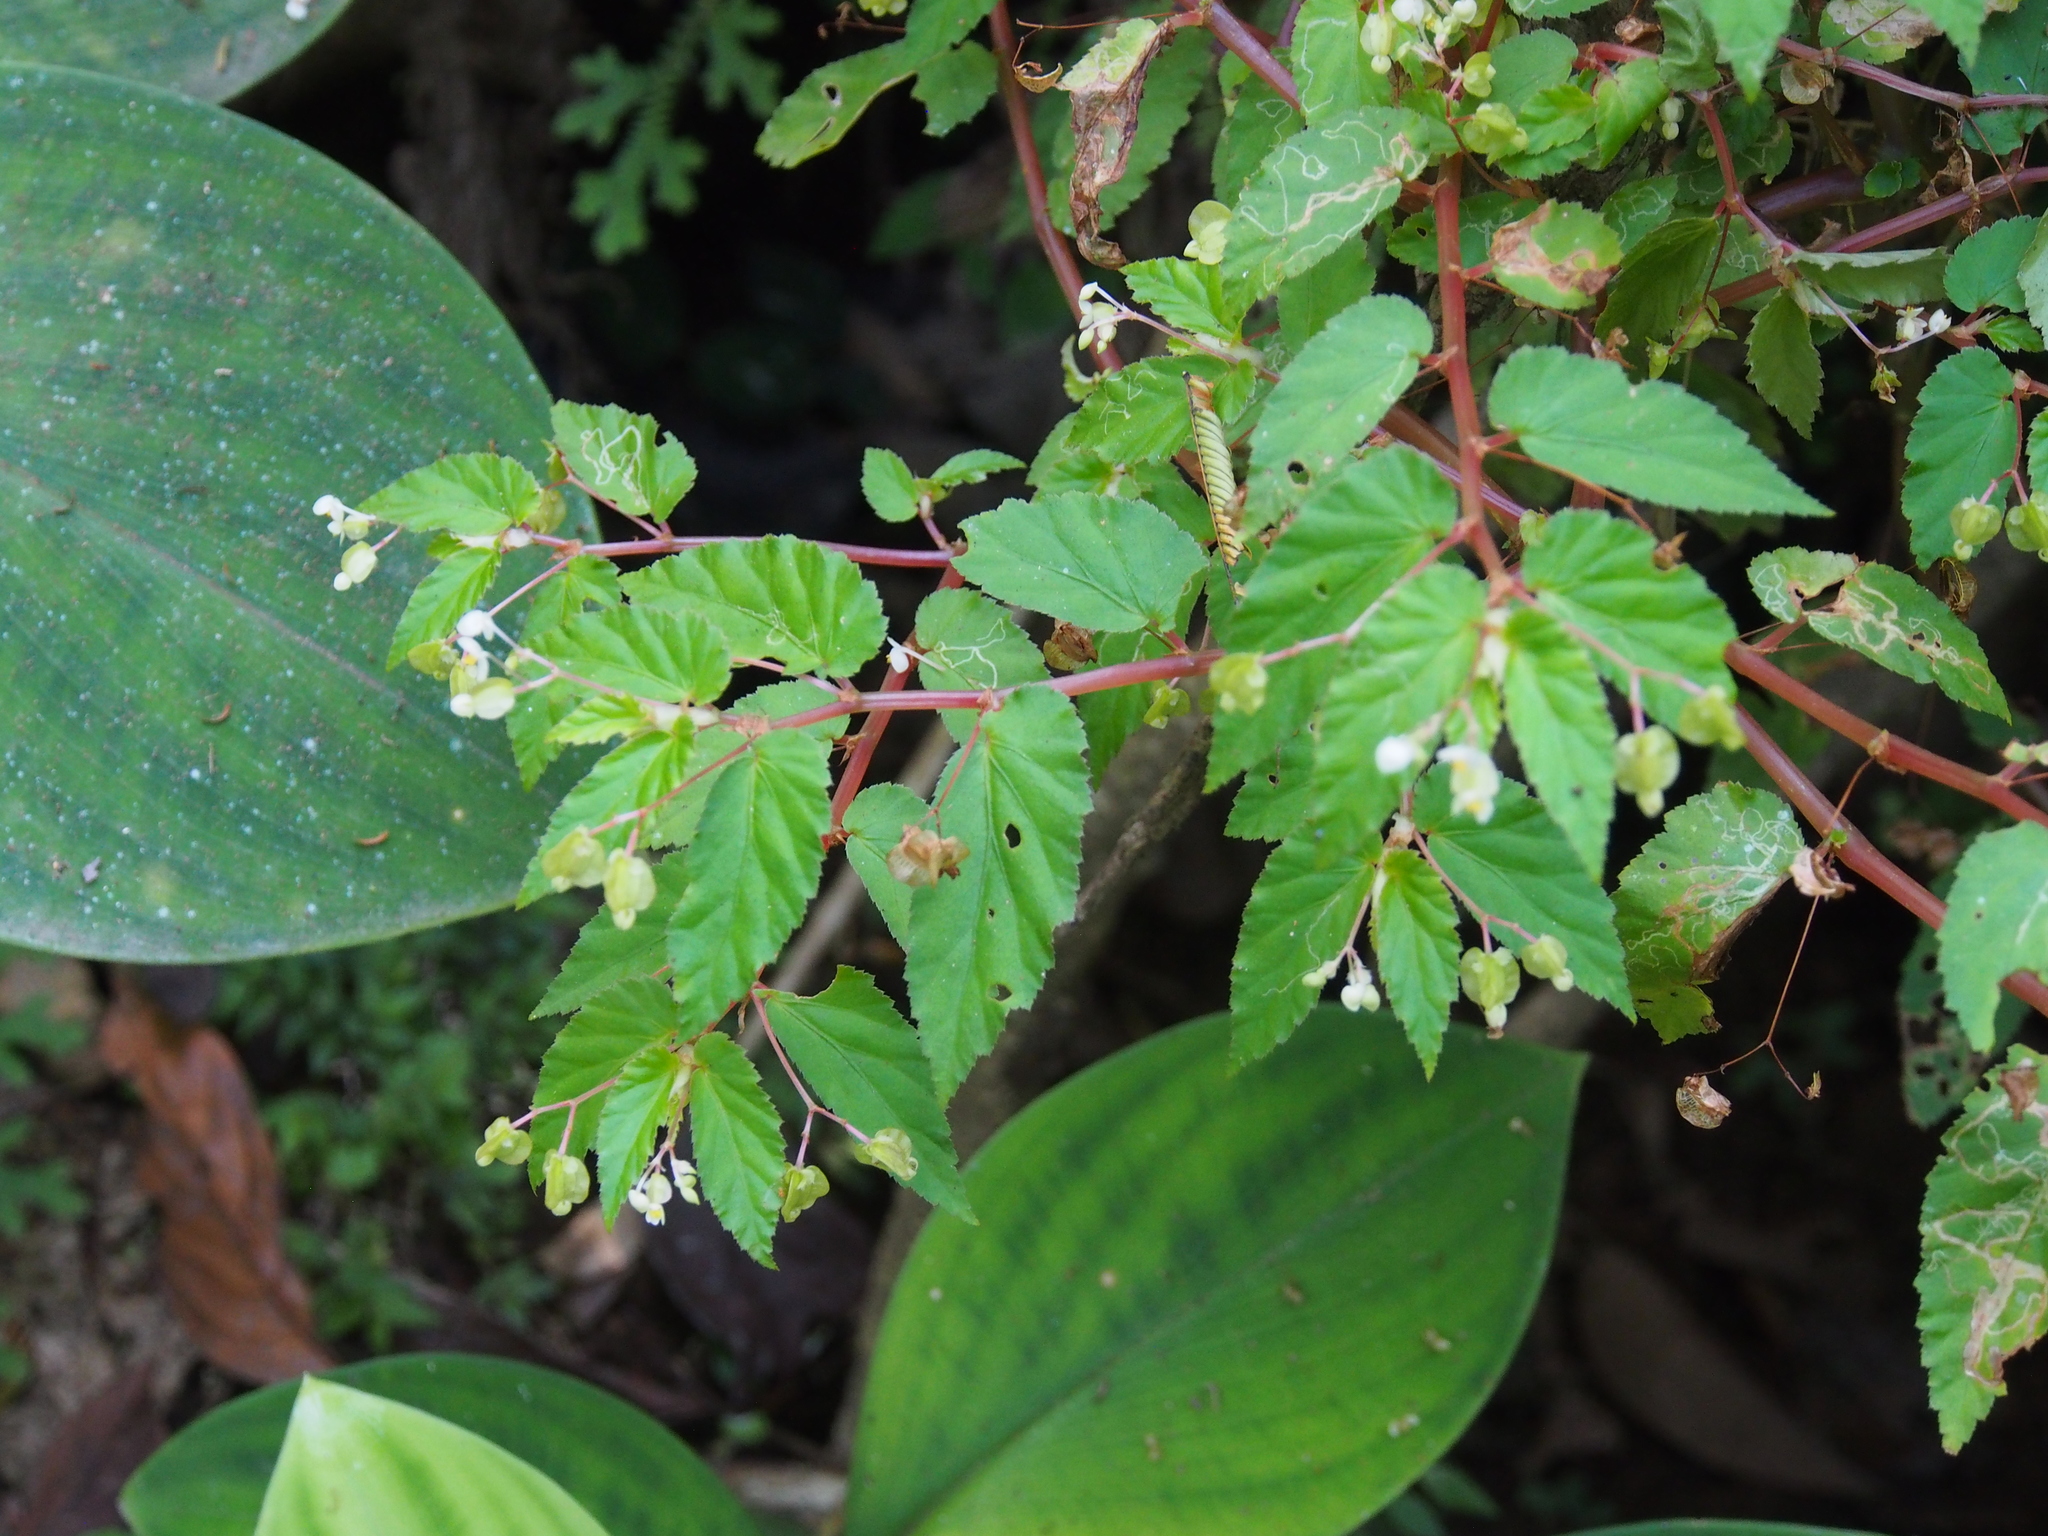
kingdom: Plantae
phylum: Tracheophyta
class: Magnoliopsida
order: Cucurbitales
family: Begoniaceae
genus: Begonia
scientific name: Begonia semiovata
